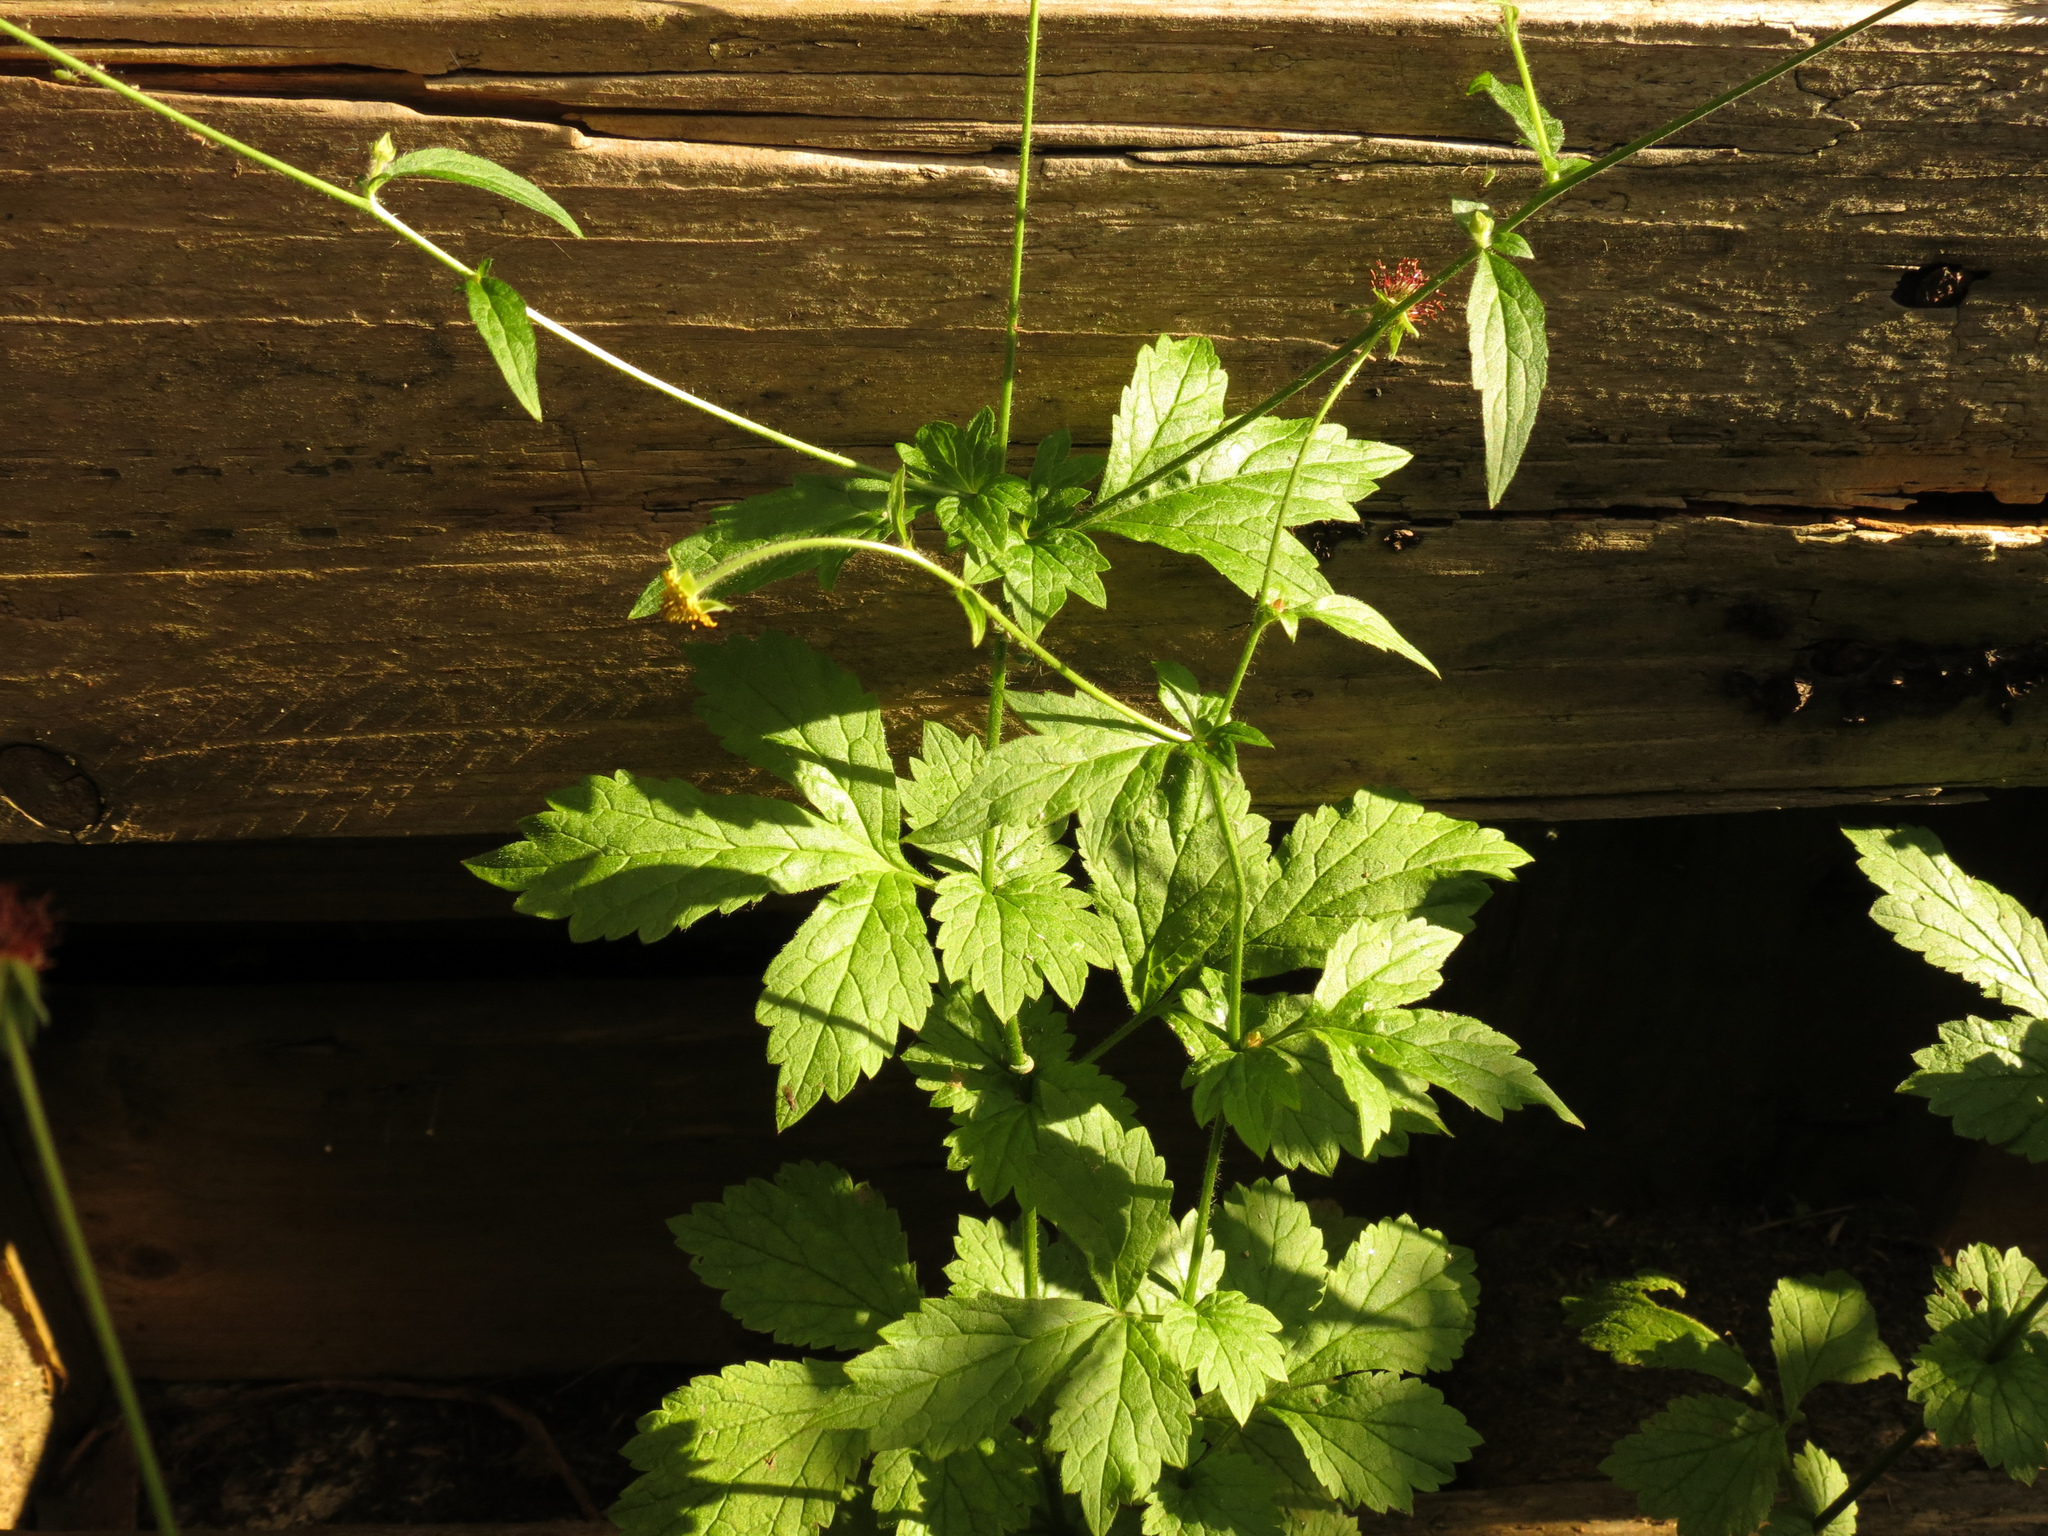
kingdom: Plantae
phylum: Tracheophyta
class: Magnoliopsida
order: Rosales
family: Rosaceae
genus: Geum
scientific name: Geum urbanum
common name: Wood avens
